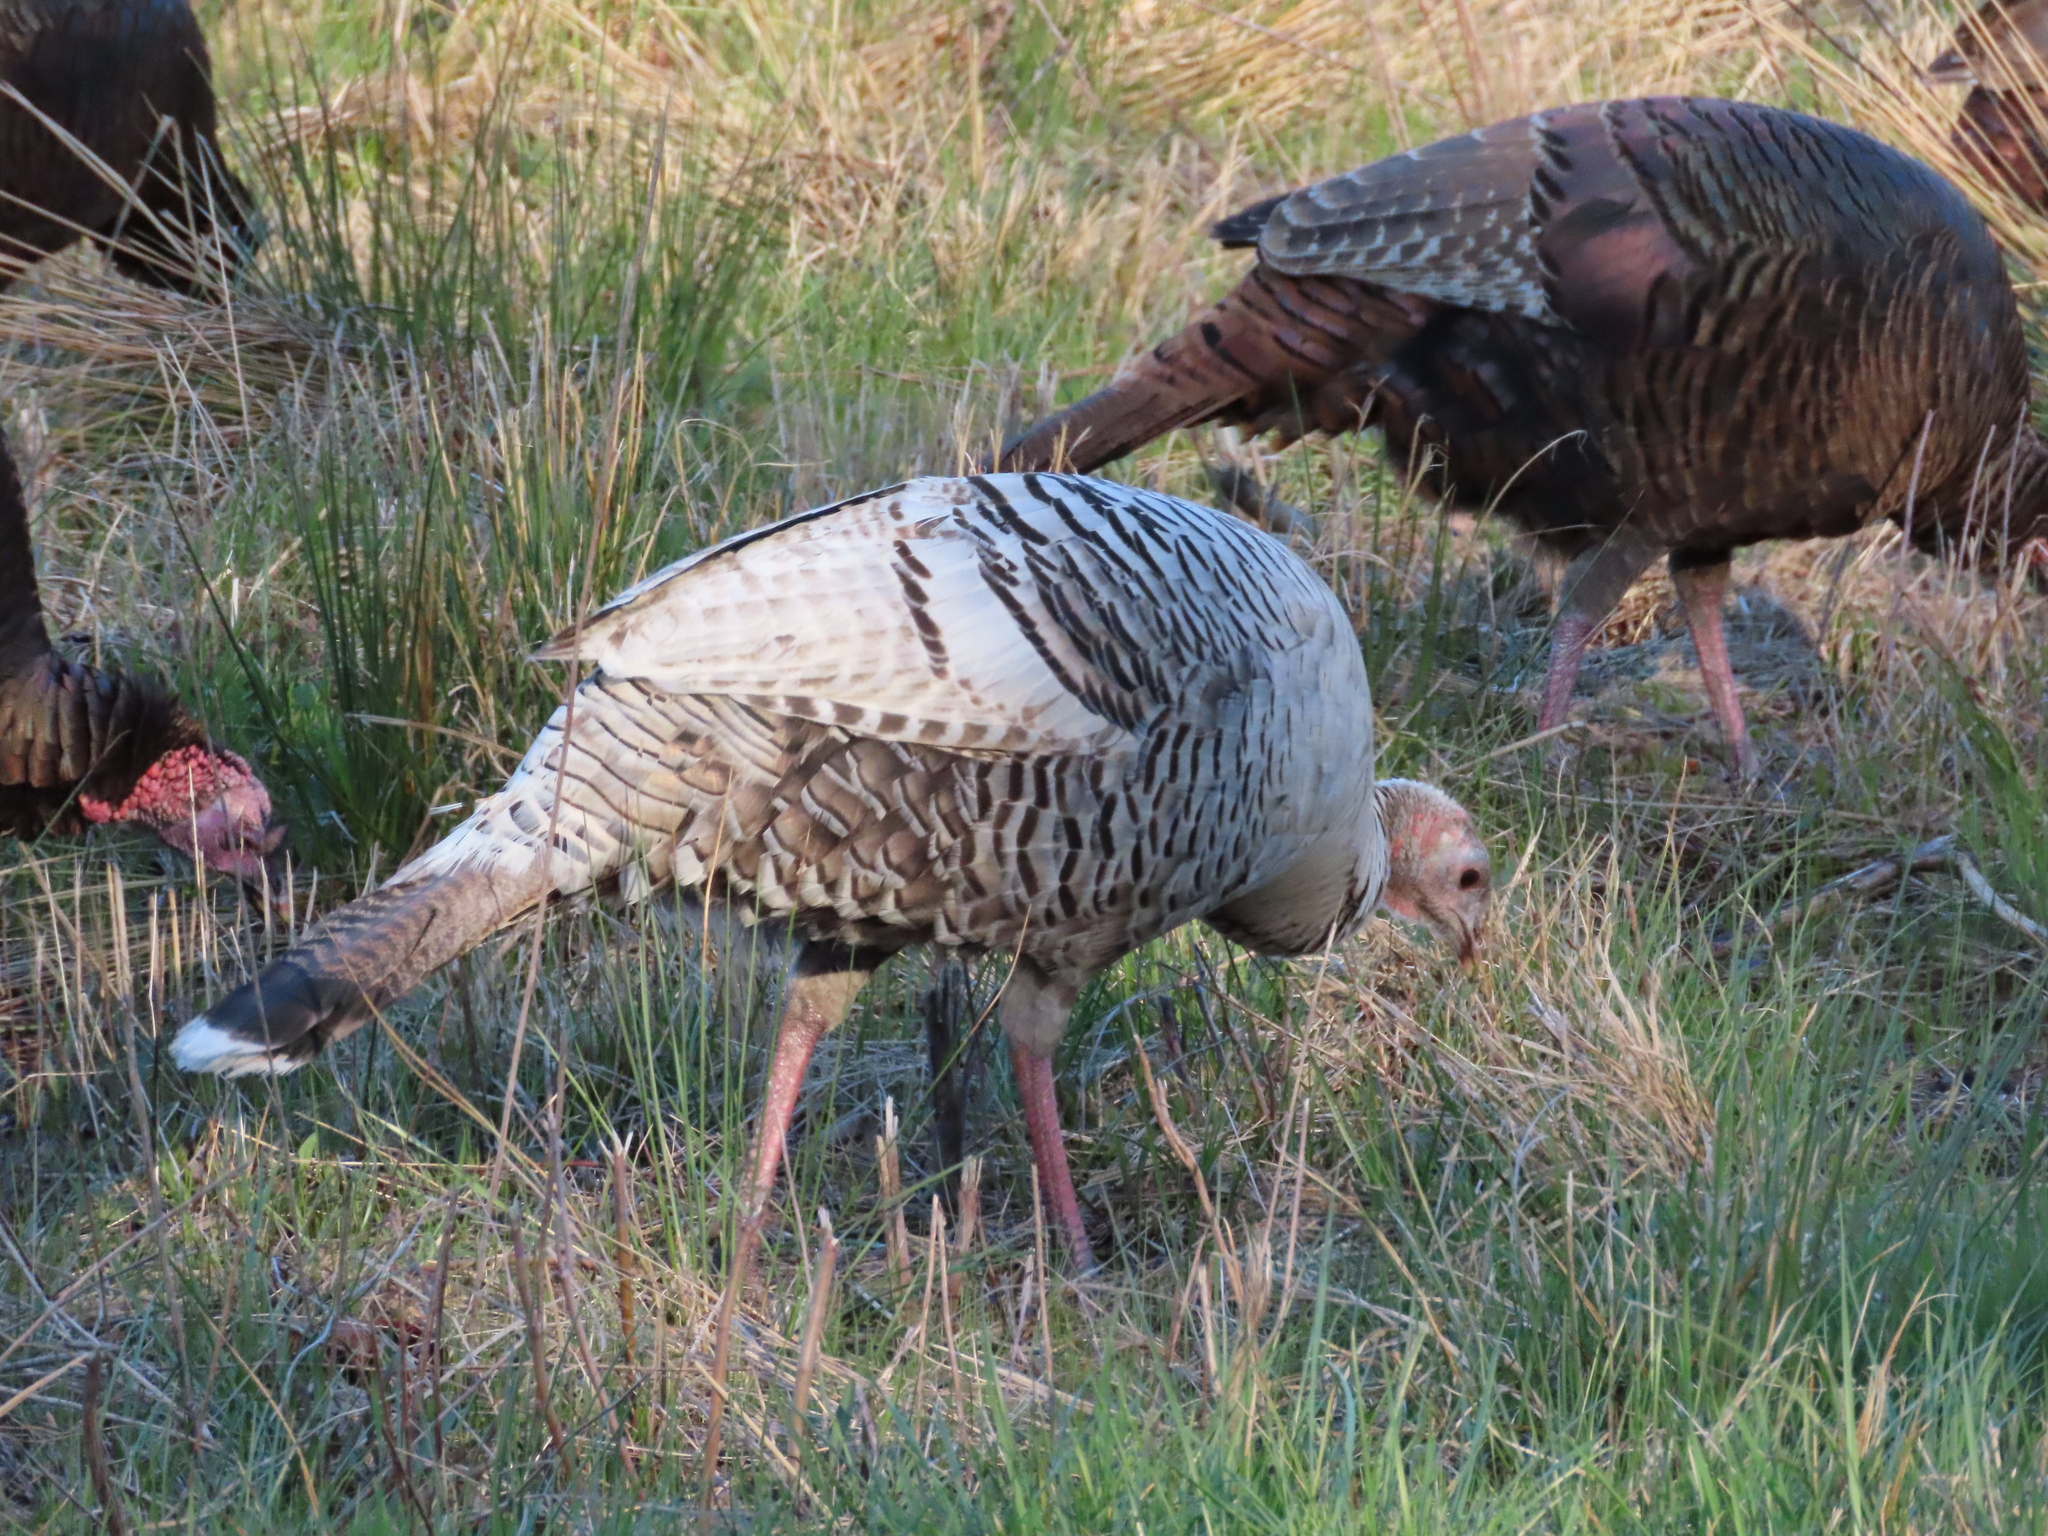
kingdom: Animalia
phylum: Chordata
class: Aves
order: Galliformes
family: Phasianidae
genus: Meleagris
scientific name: Meleagris gallopavo
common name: Wild turkey
